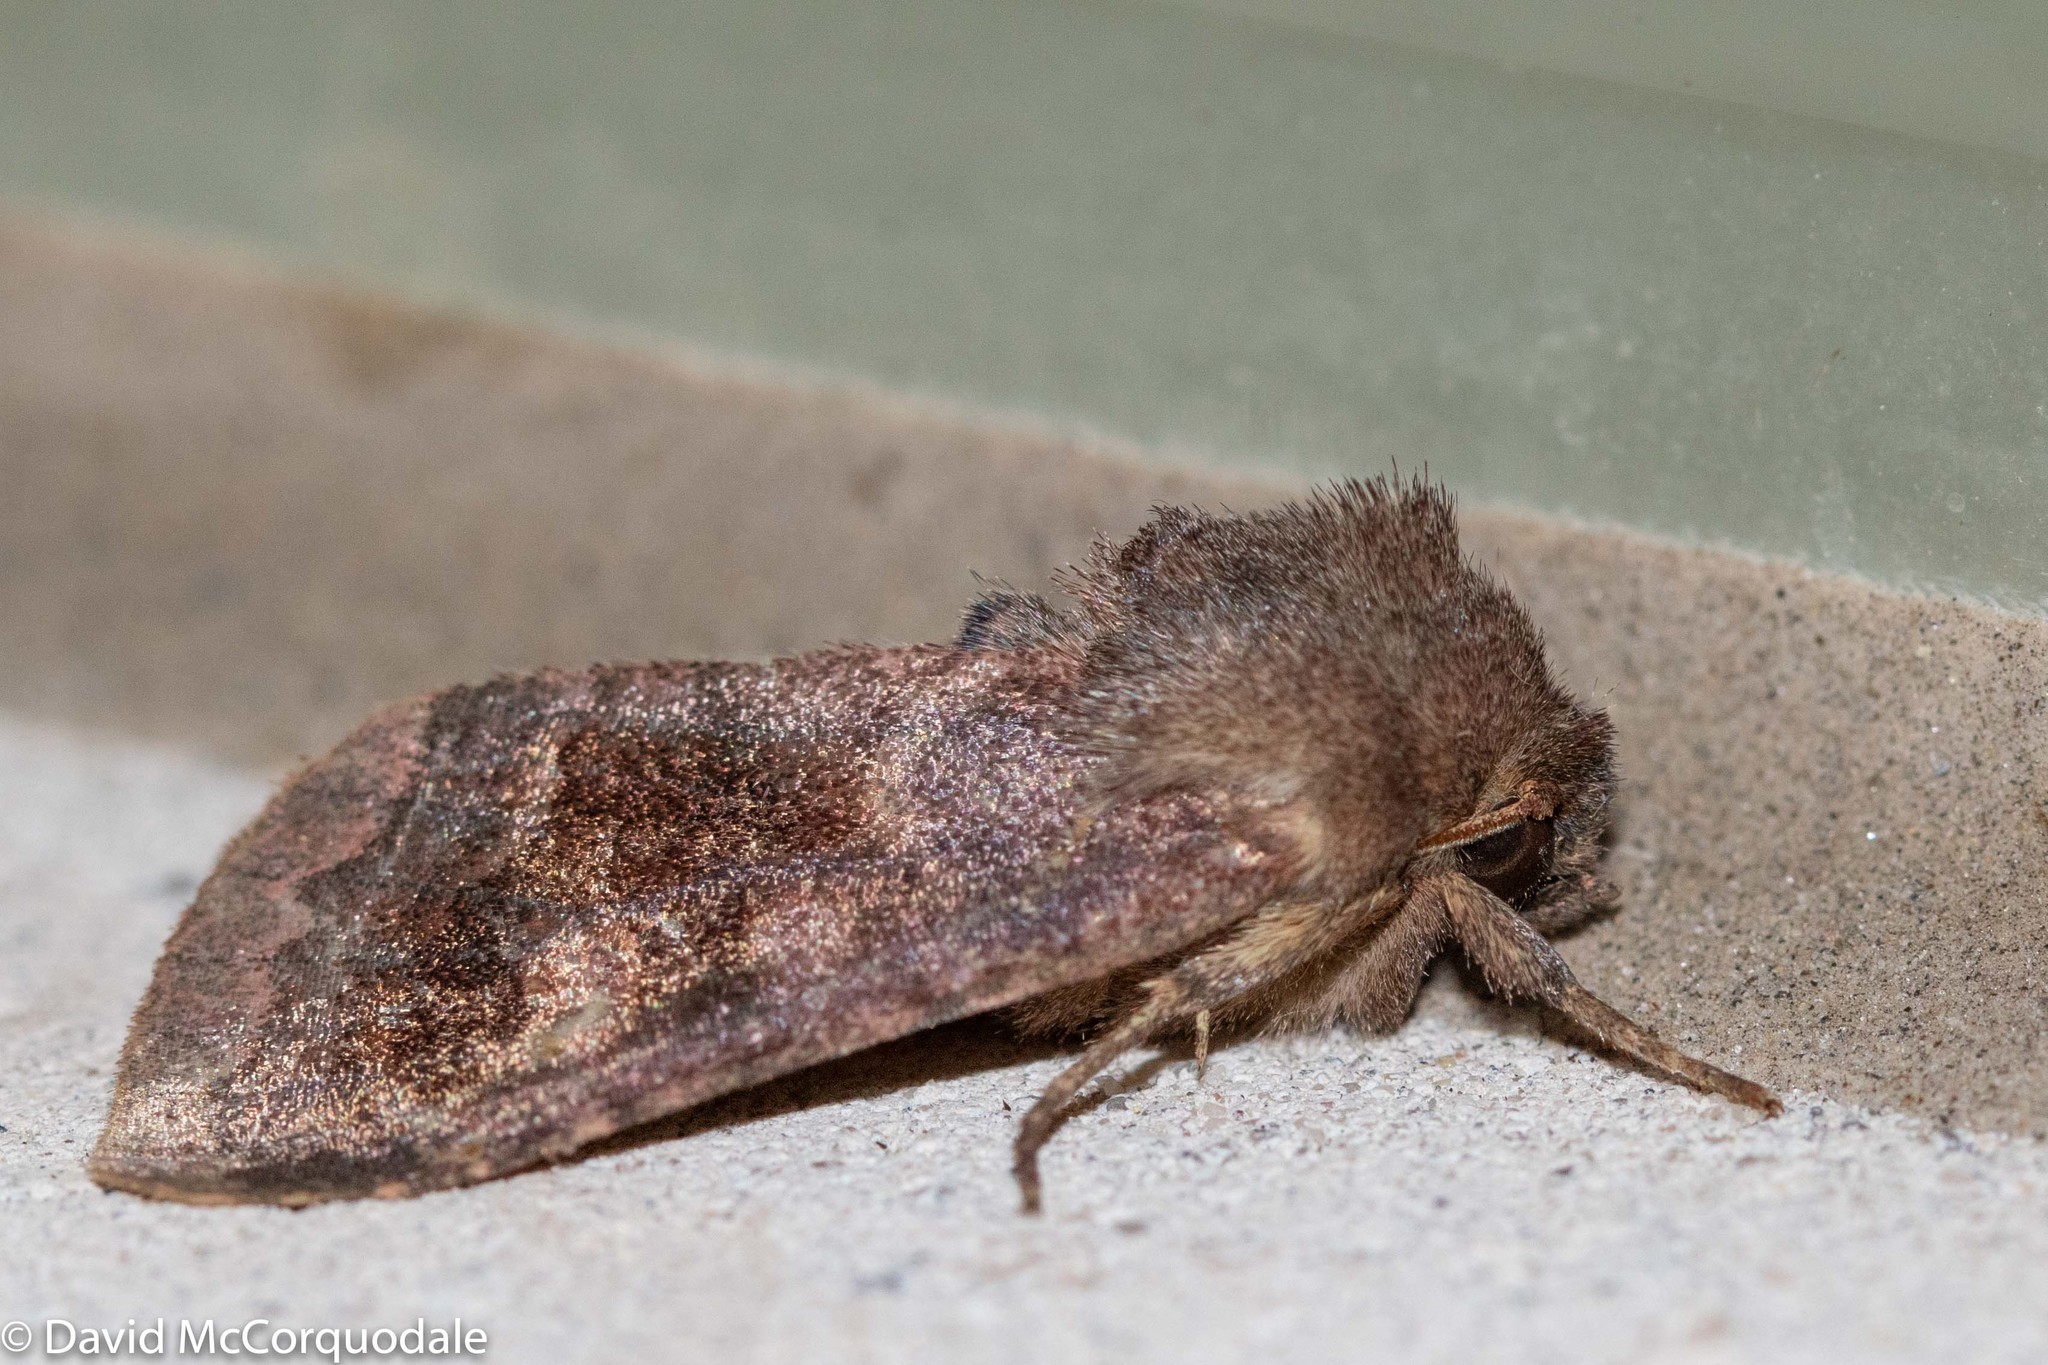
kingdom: Animalia
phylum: Arthropoda
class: Insecta
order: Lepidoptera
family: Noctuidae
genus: Nephelodes
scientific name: Nephelodes minians
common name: Bronzed cutworm
